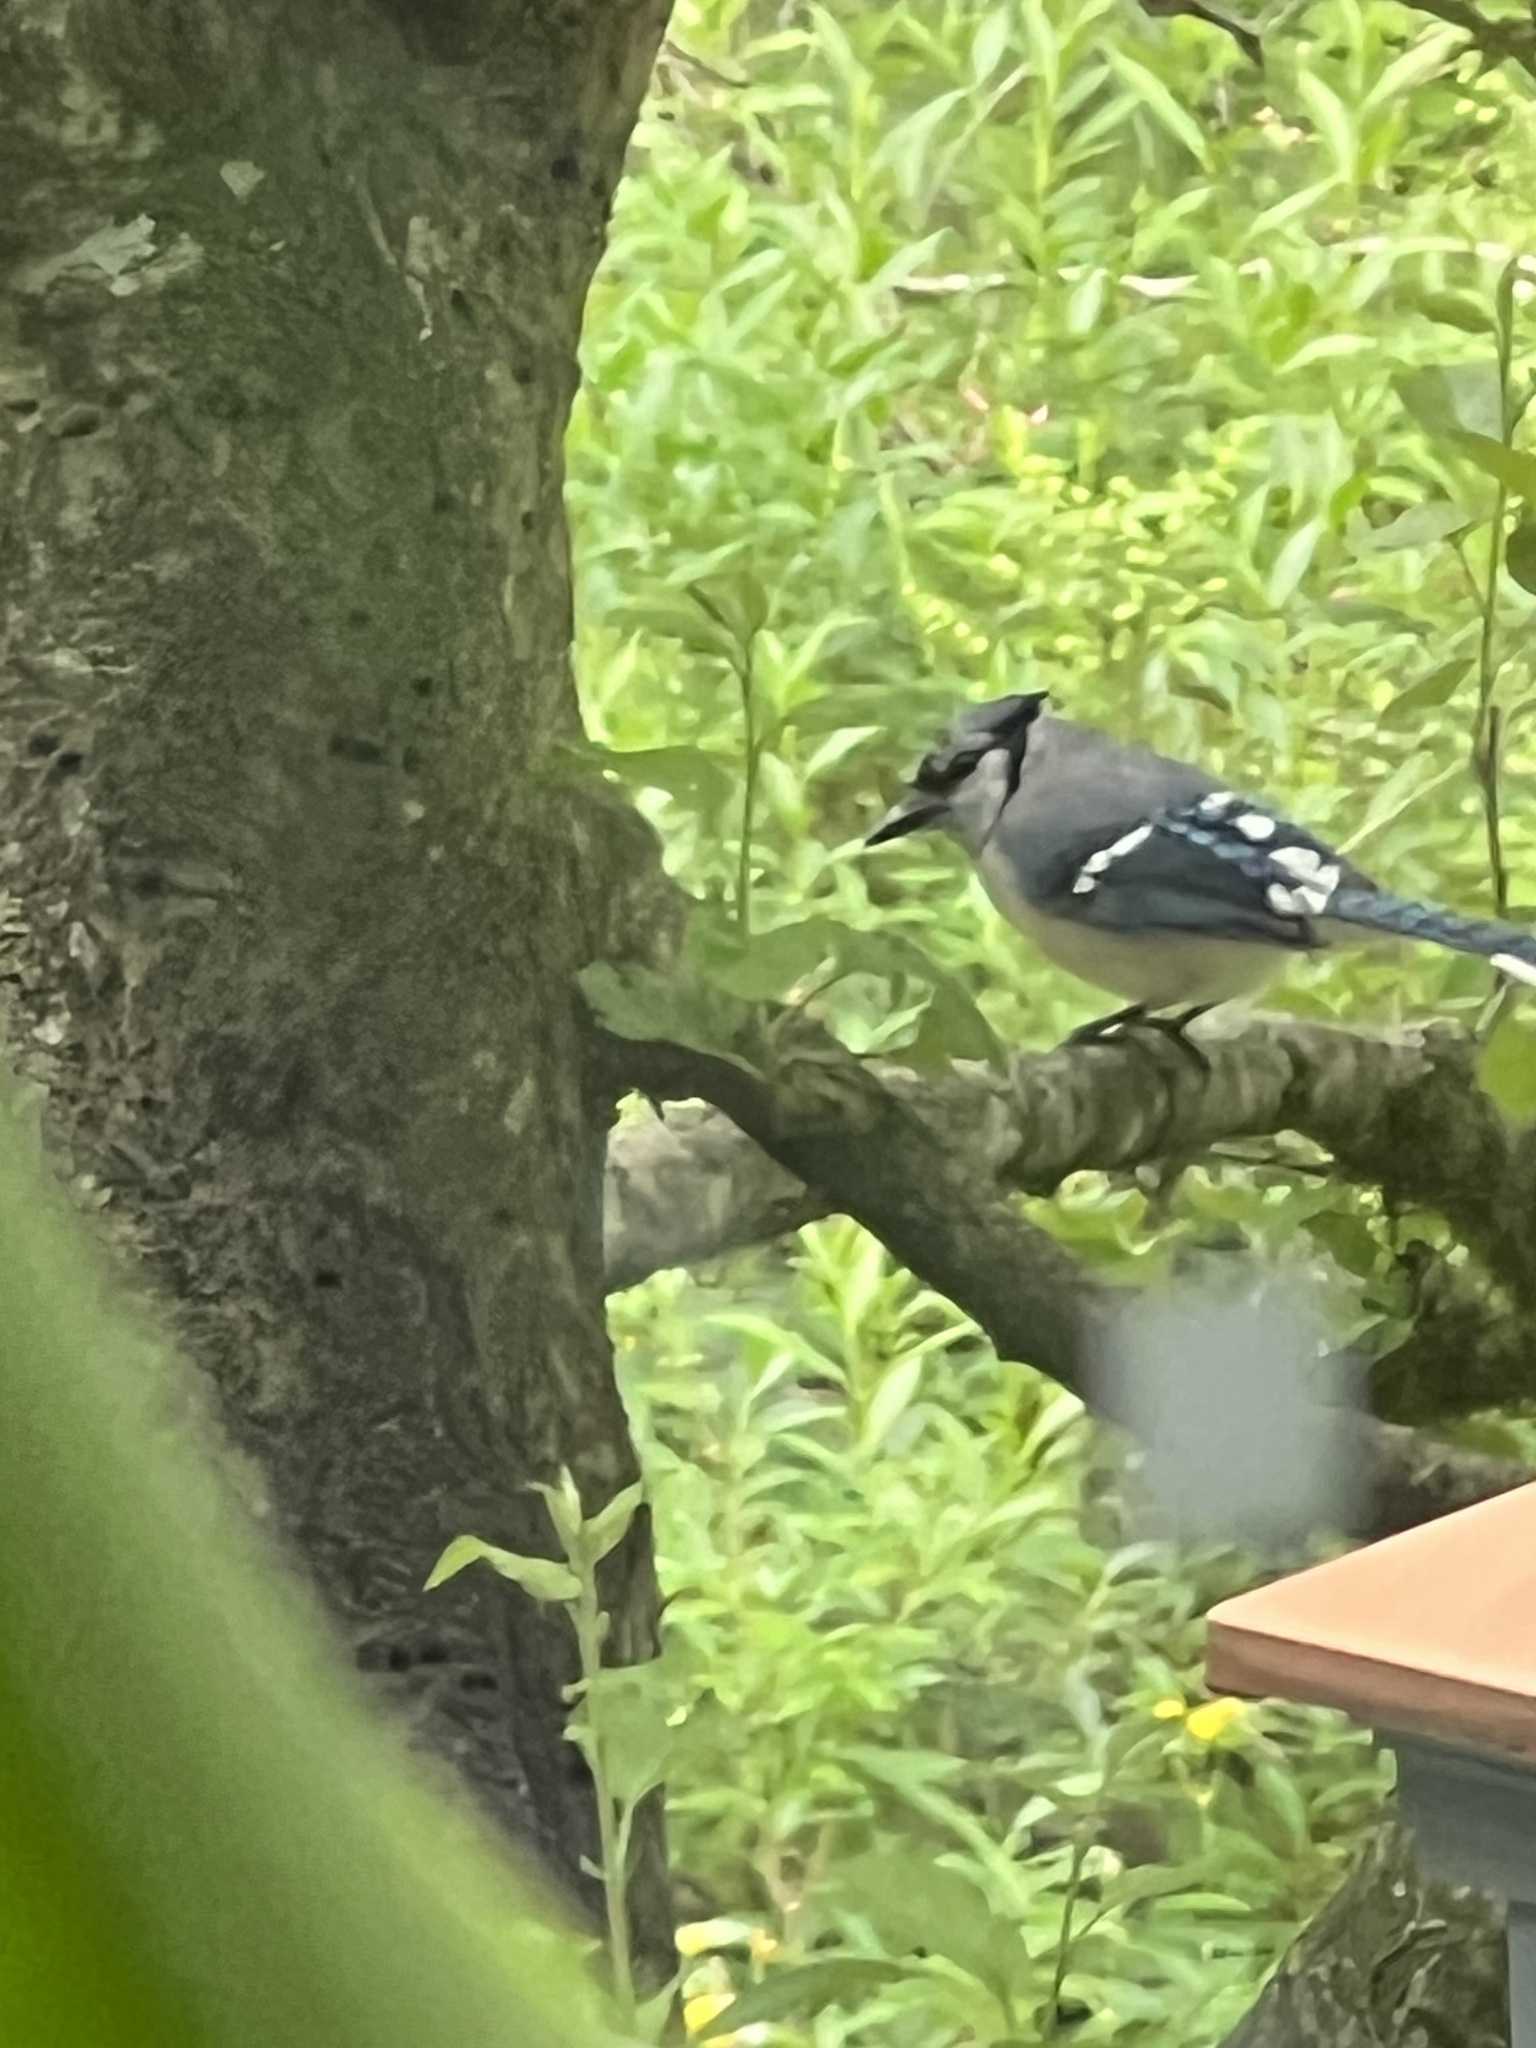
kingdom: Animalia
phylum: Chordata
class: Aves
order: Passeriformes
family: Corvidae
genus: Cyanocitta
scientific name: Cyanocitta cristata
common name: Blue jay
